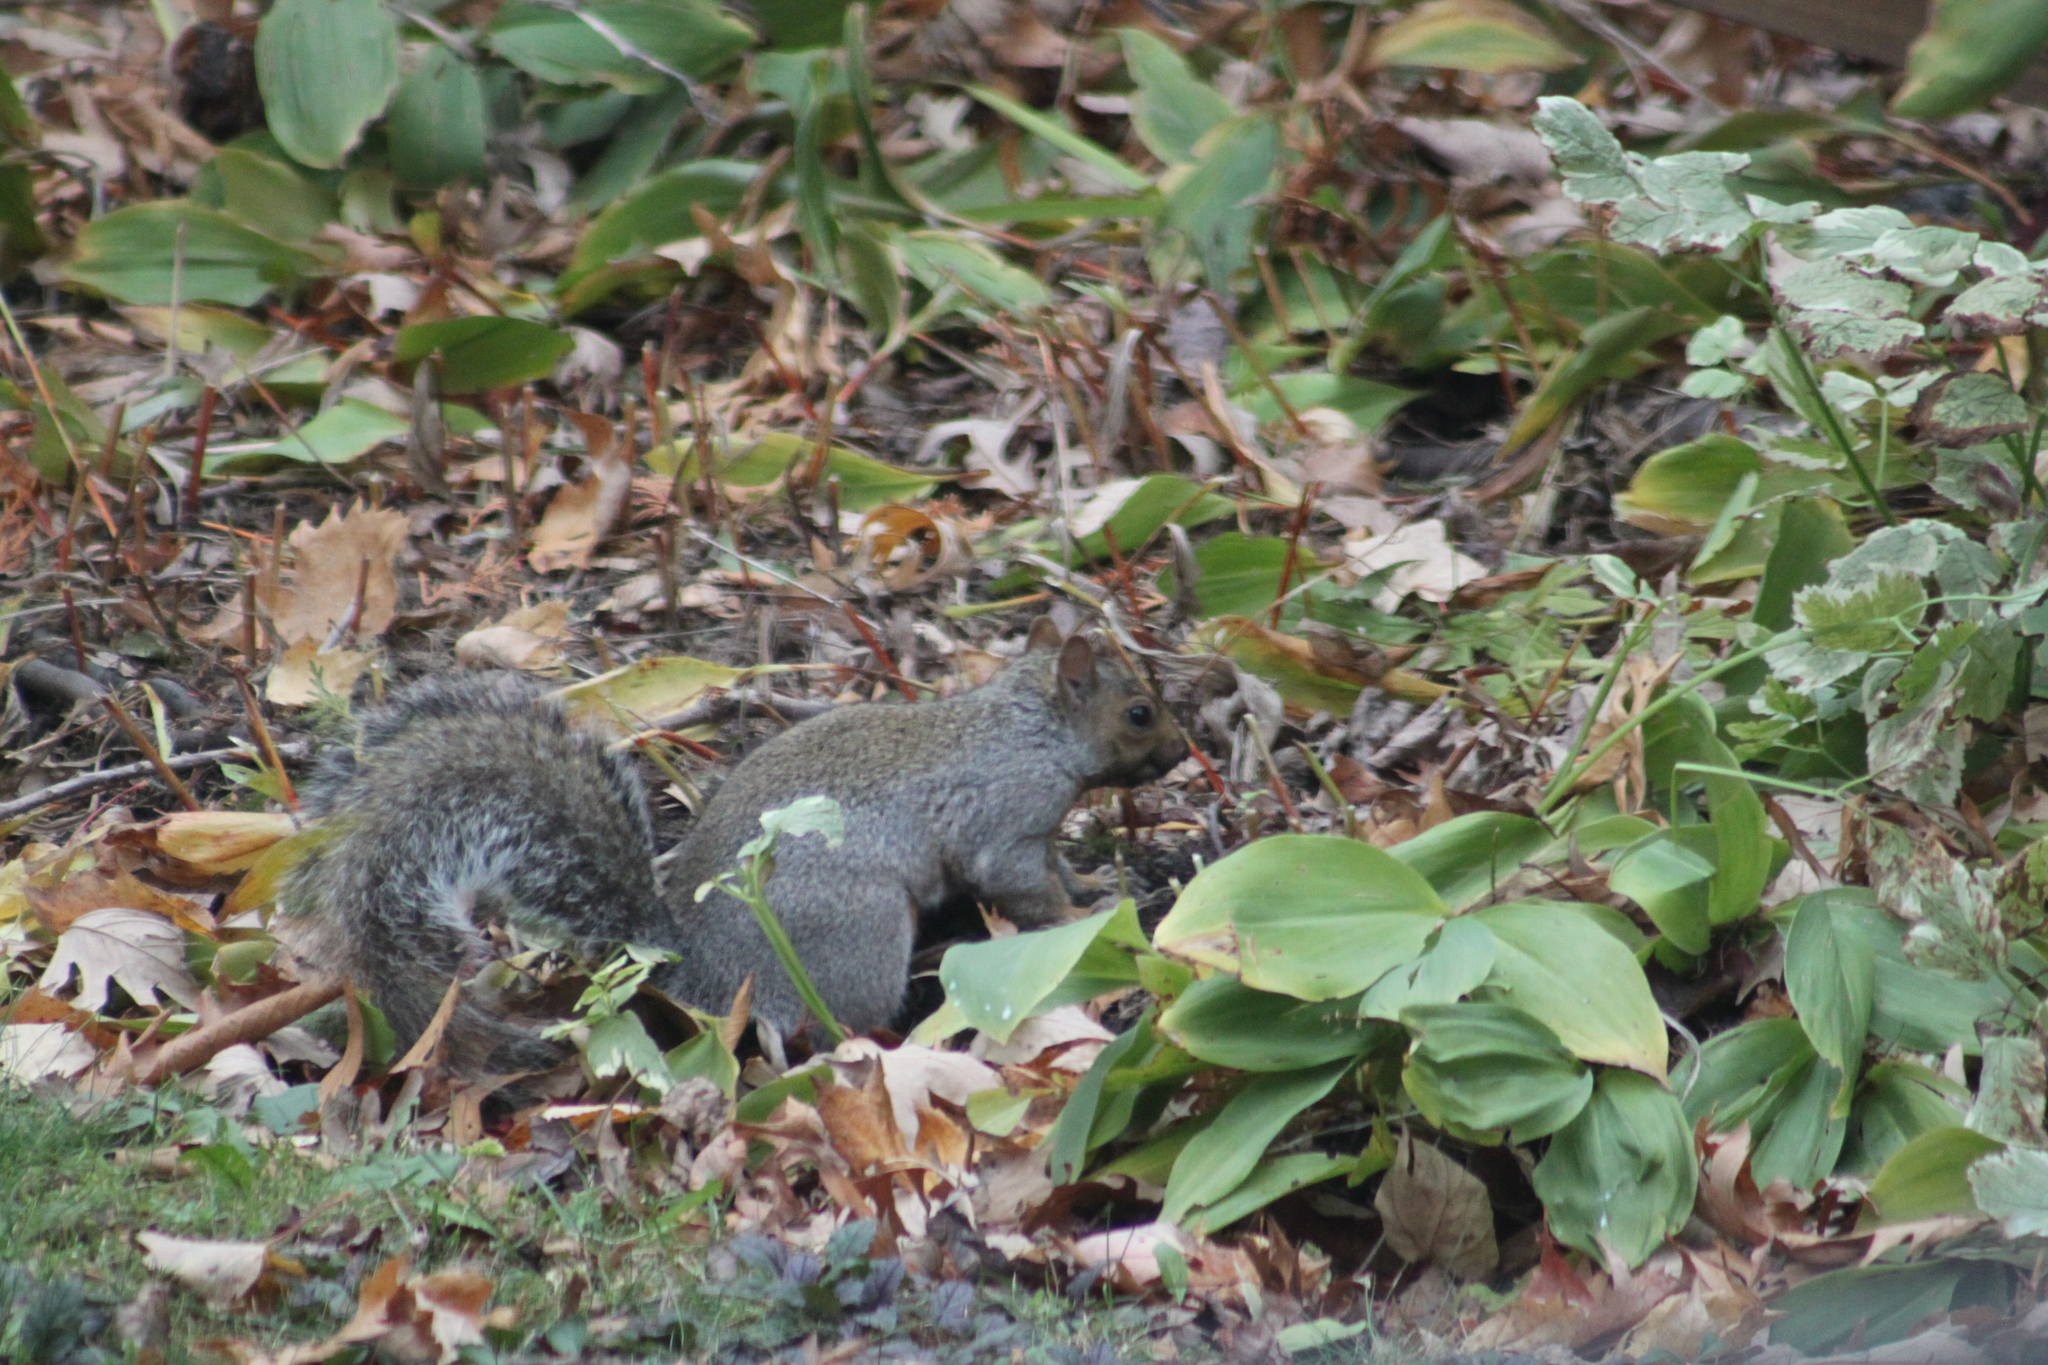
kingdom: Animalia
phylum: Chordata
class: Mammalia
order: Rodentia
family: Sciuridae
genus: Sciurus
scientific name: Sciurus carolinensis
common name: Eastern gray squirrel
